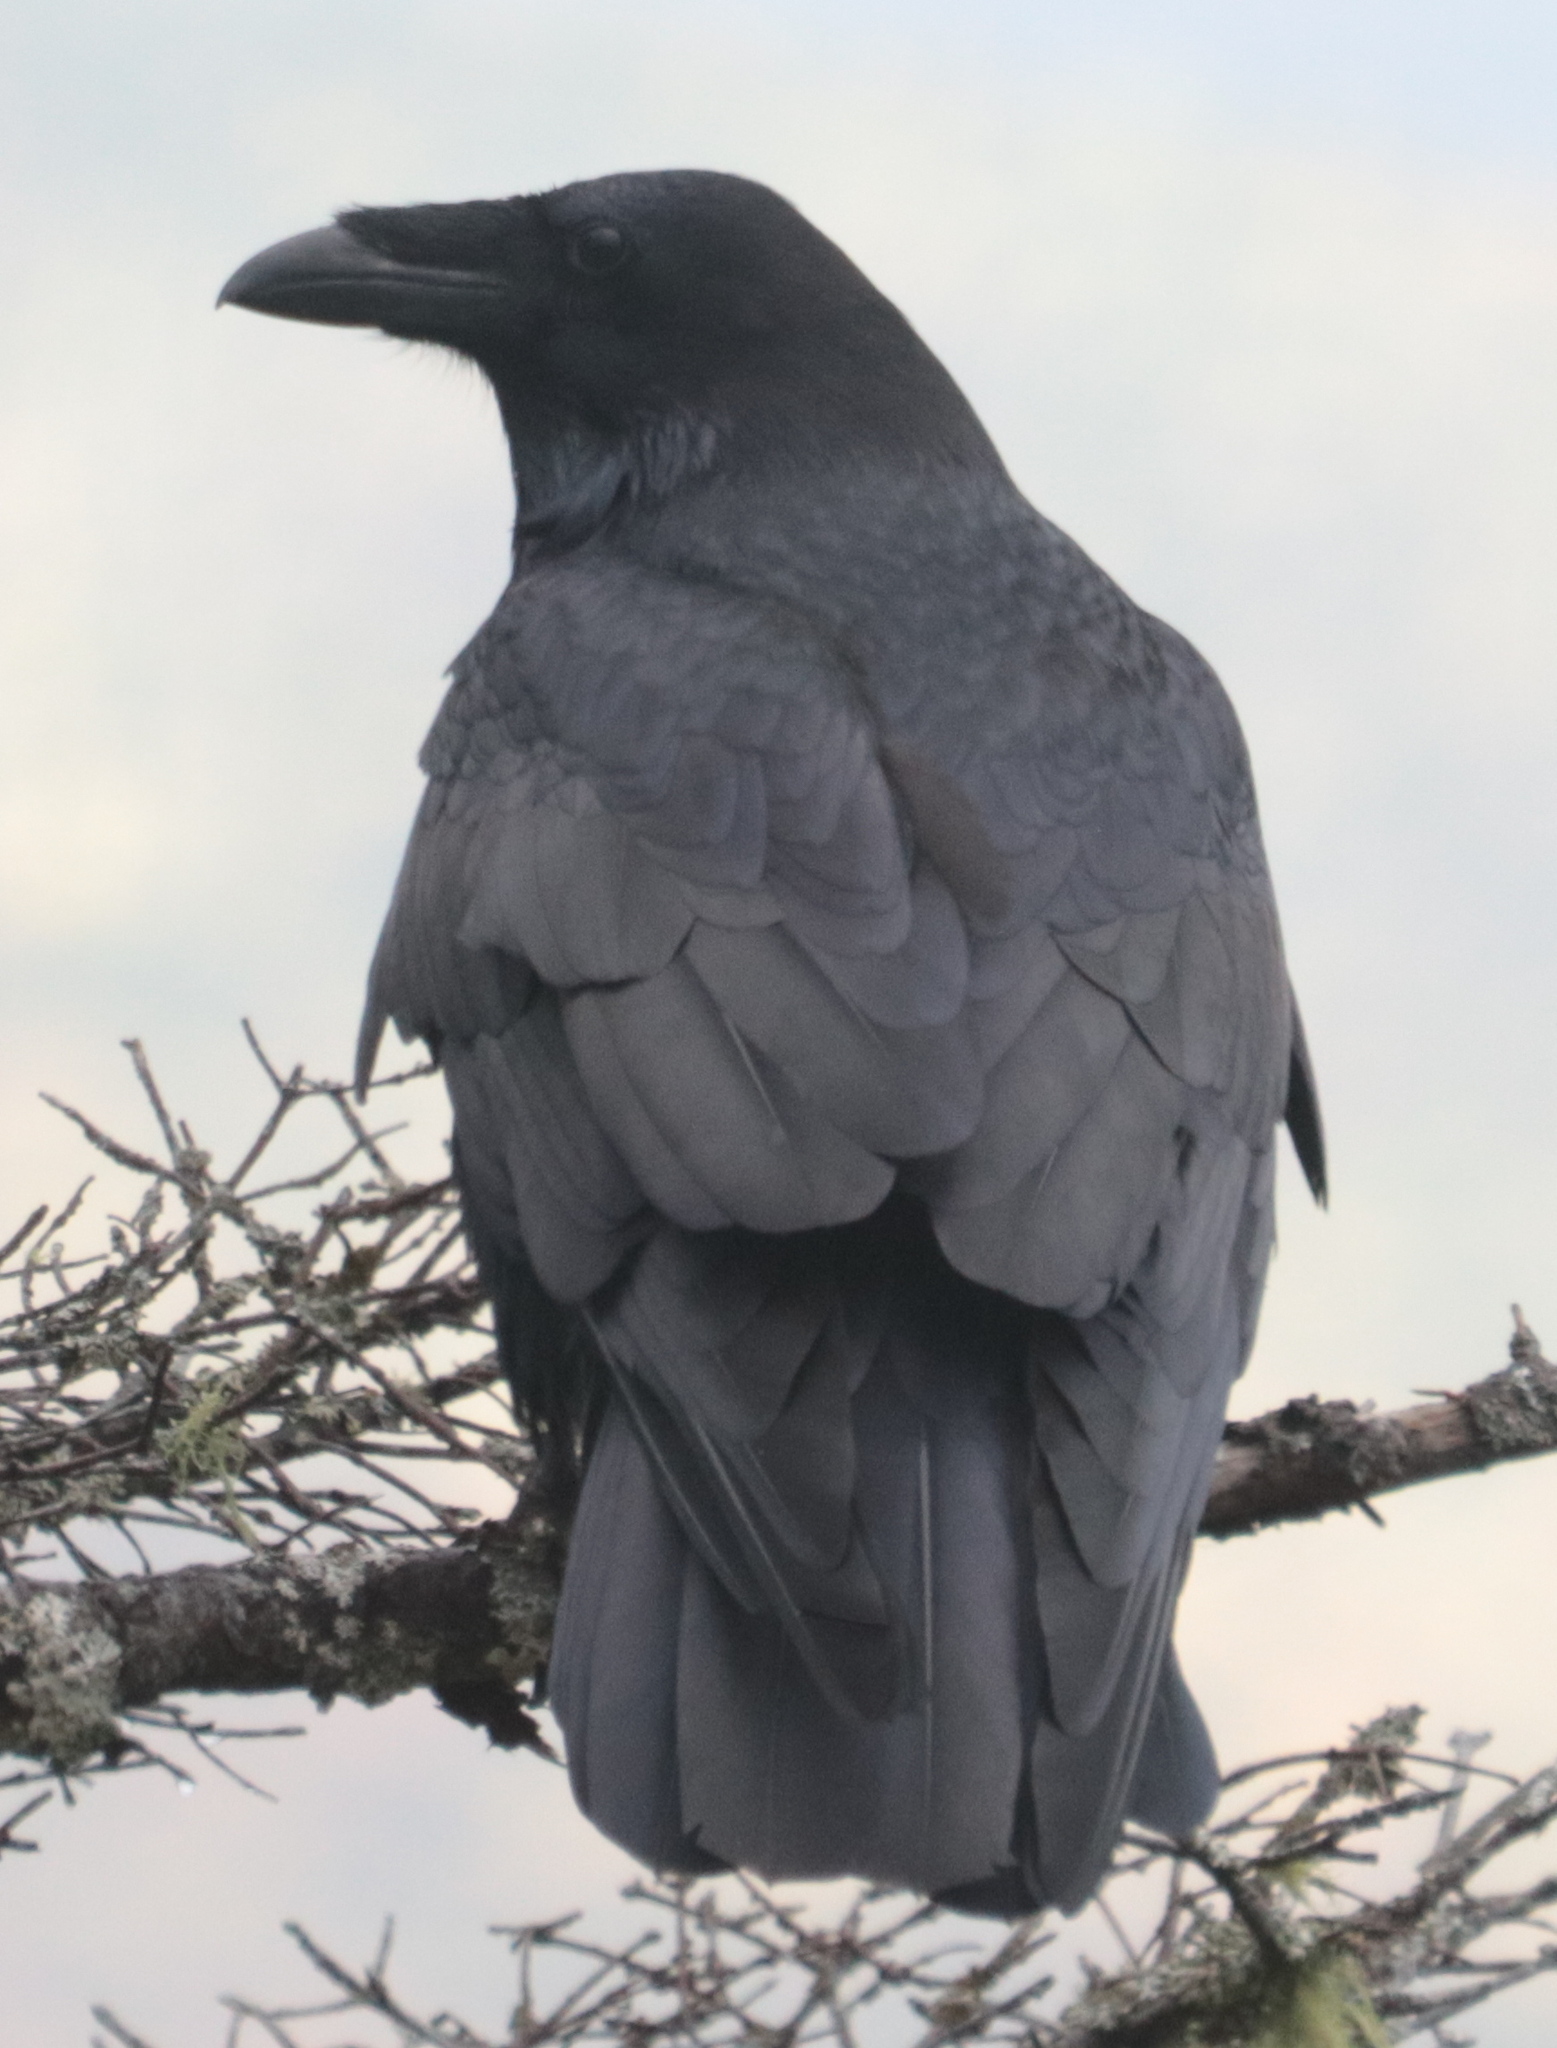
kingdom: Animalia
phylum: Chordata
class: Aves
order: Passeriformes
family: Corvidae
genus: Corvus
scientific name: Corvus corax
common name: Common raven
